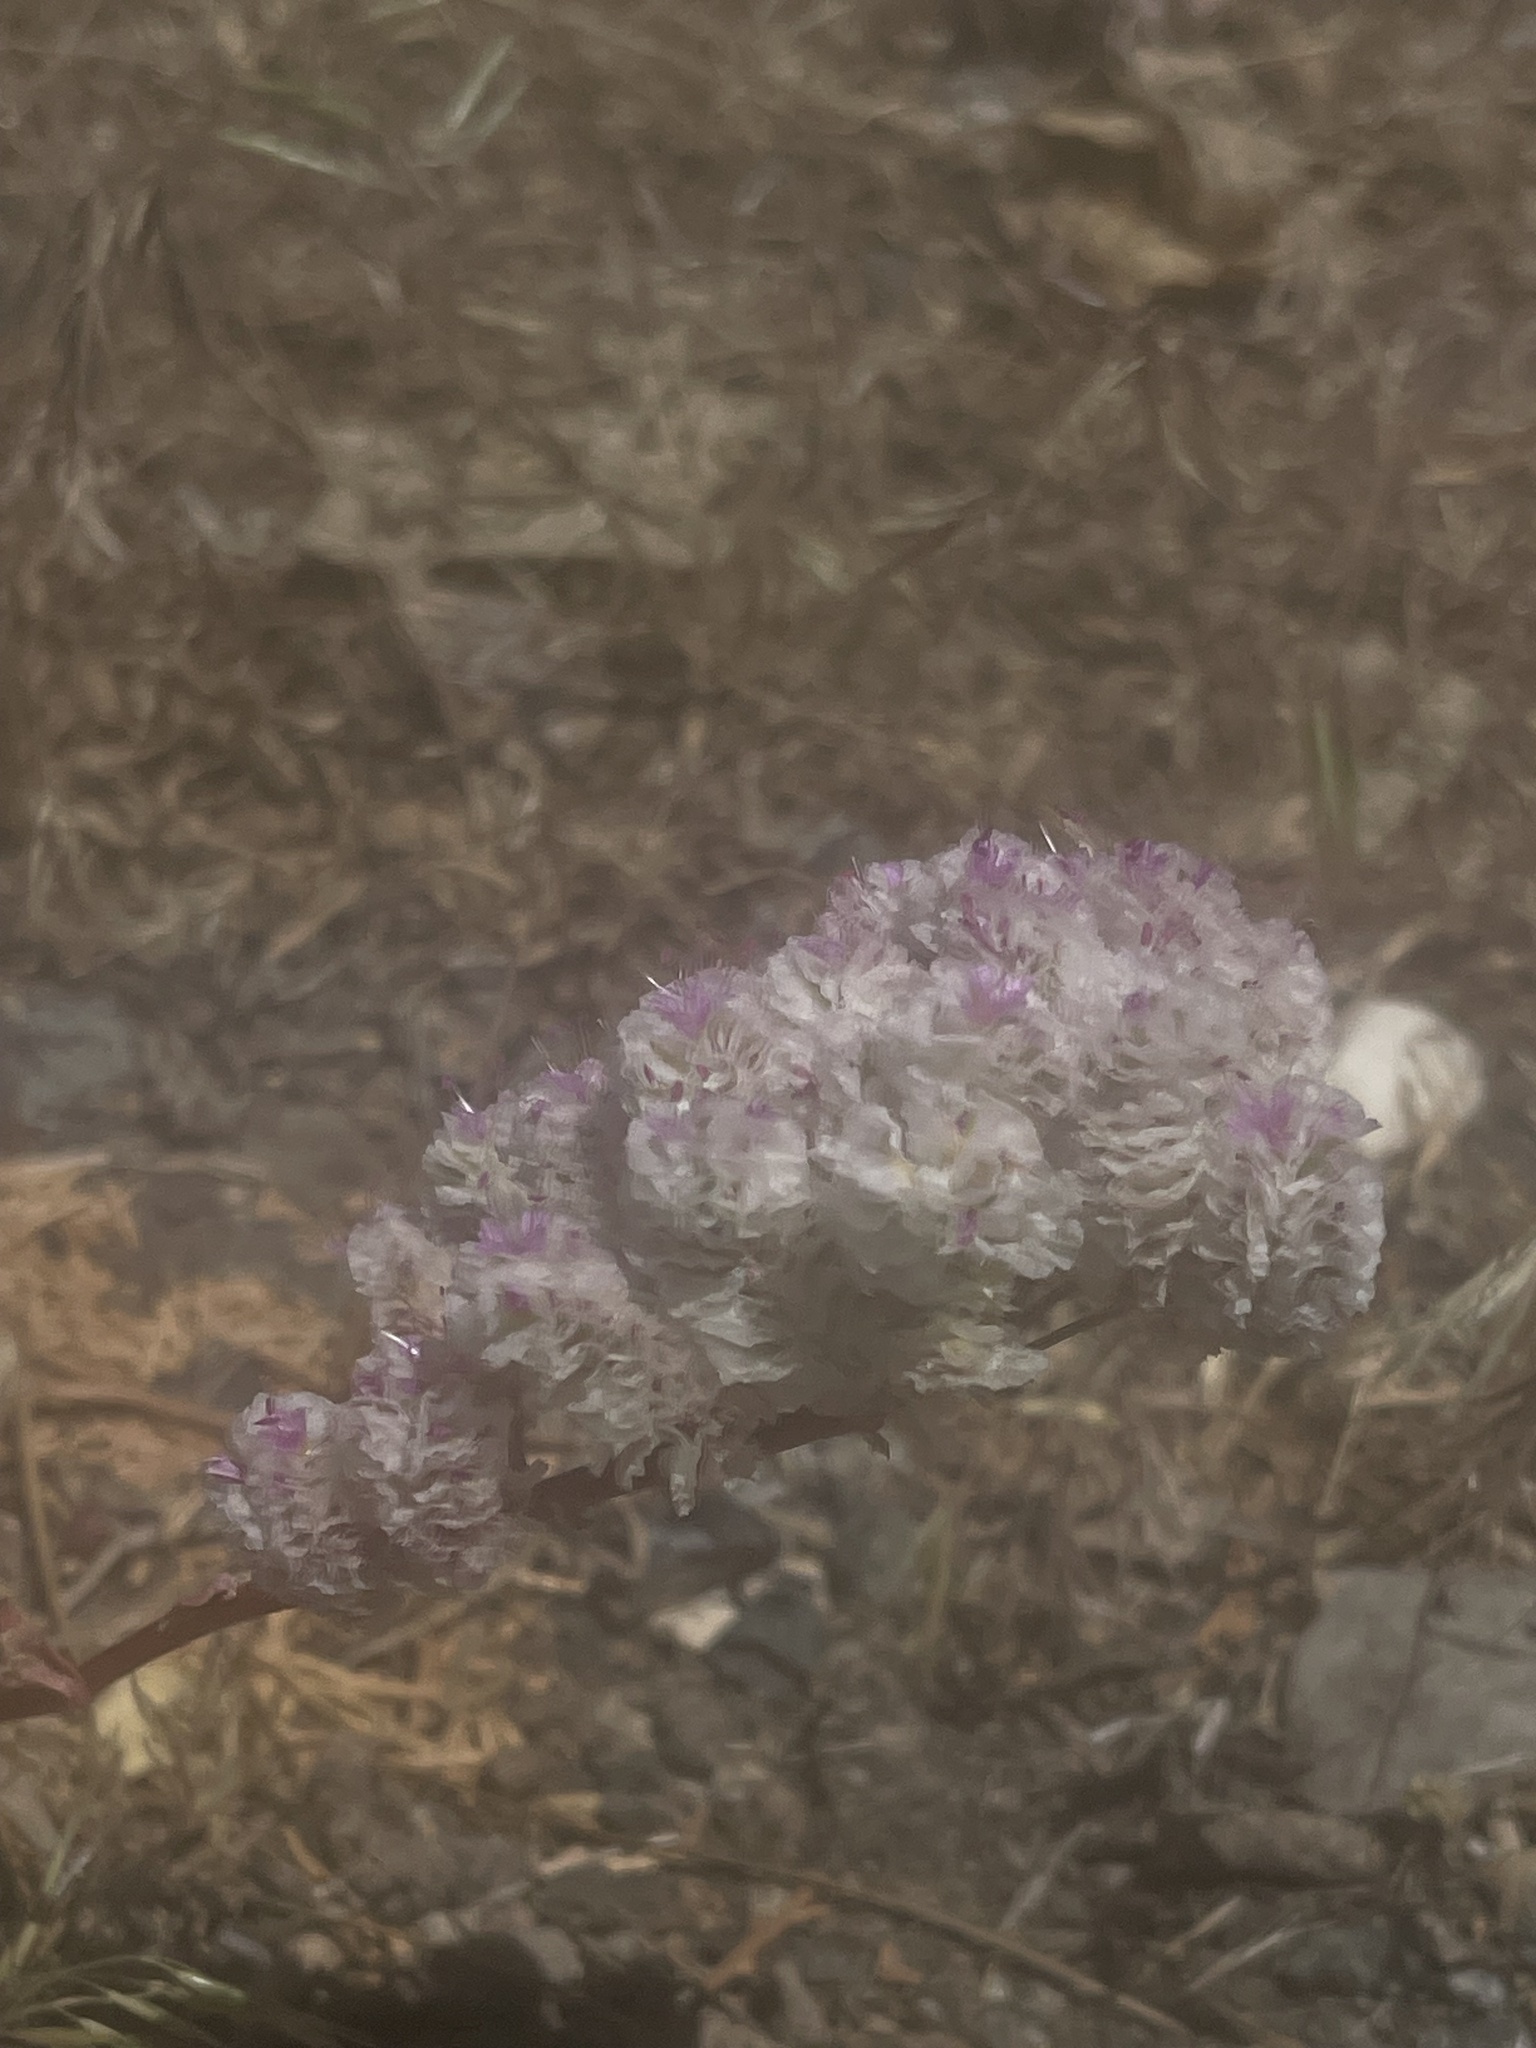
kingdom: Plantae
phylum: Tracheophyta
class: Magnoliopsida
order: Caryophyllales
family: Montiaceae
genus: Calyptridium
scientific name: Calyptridium monospermum
